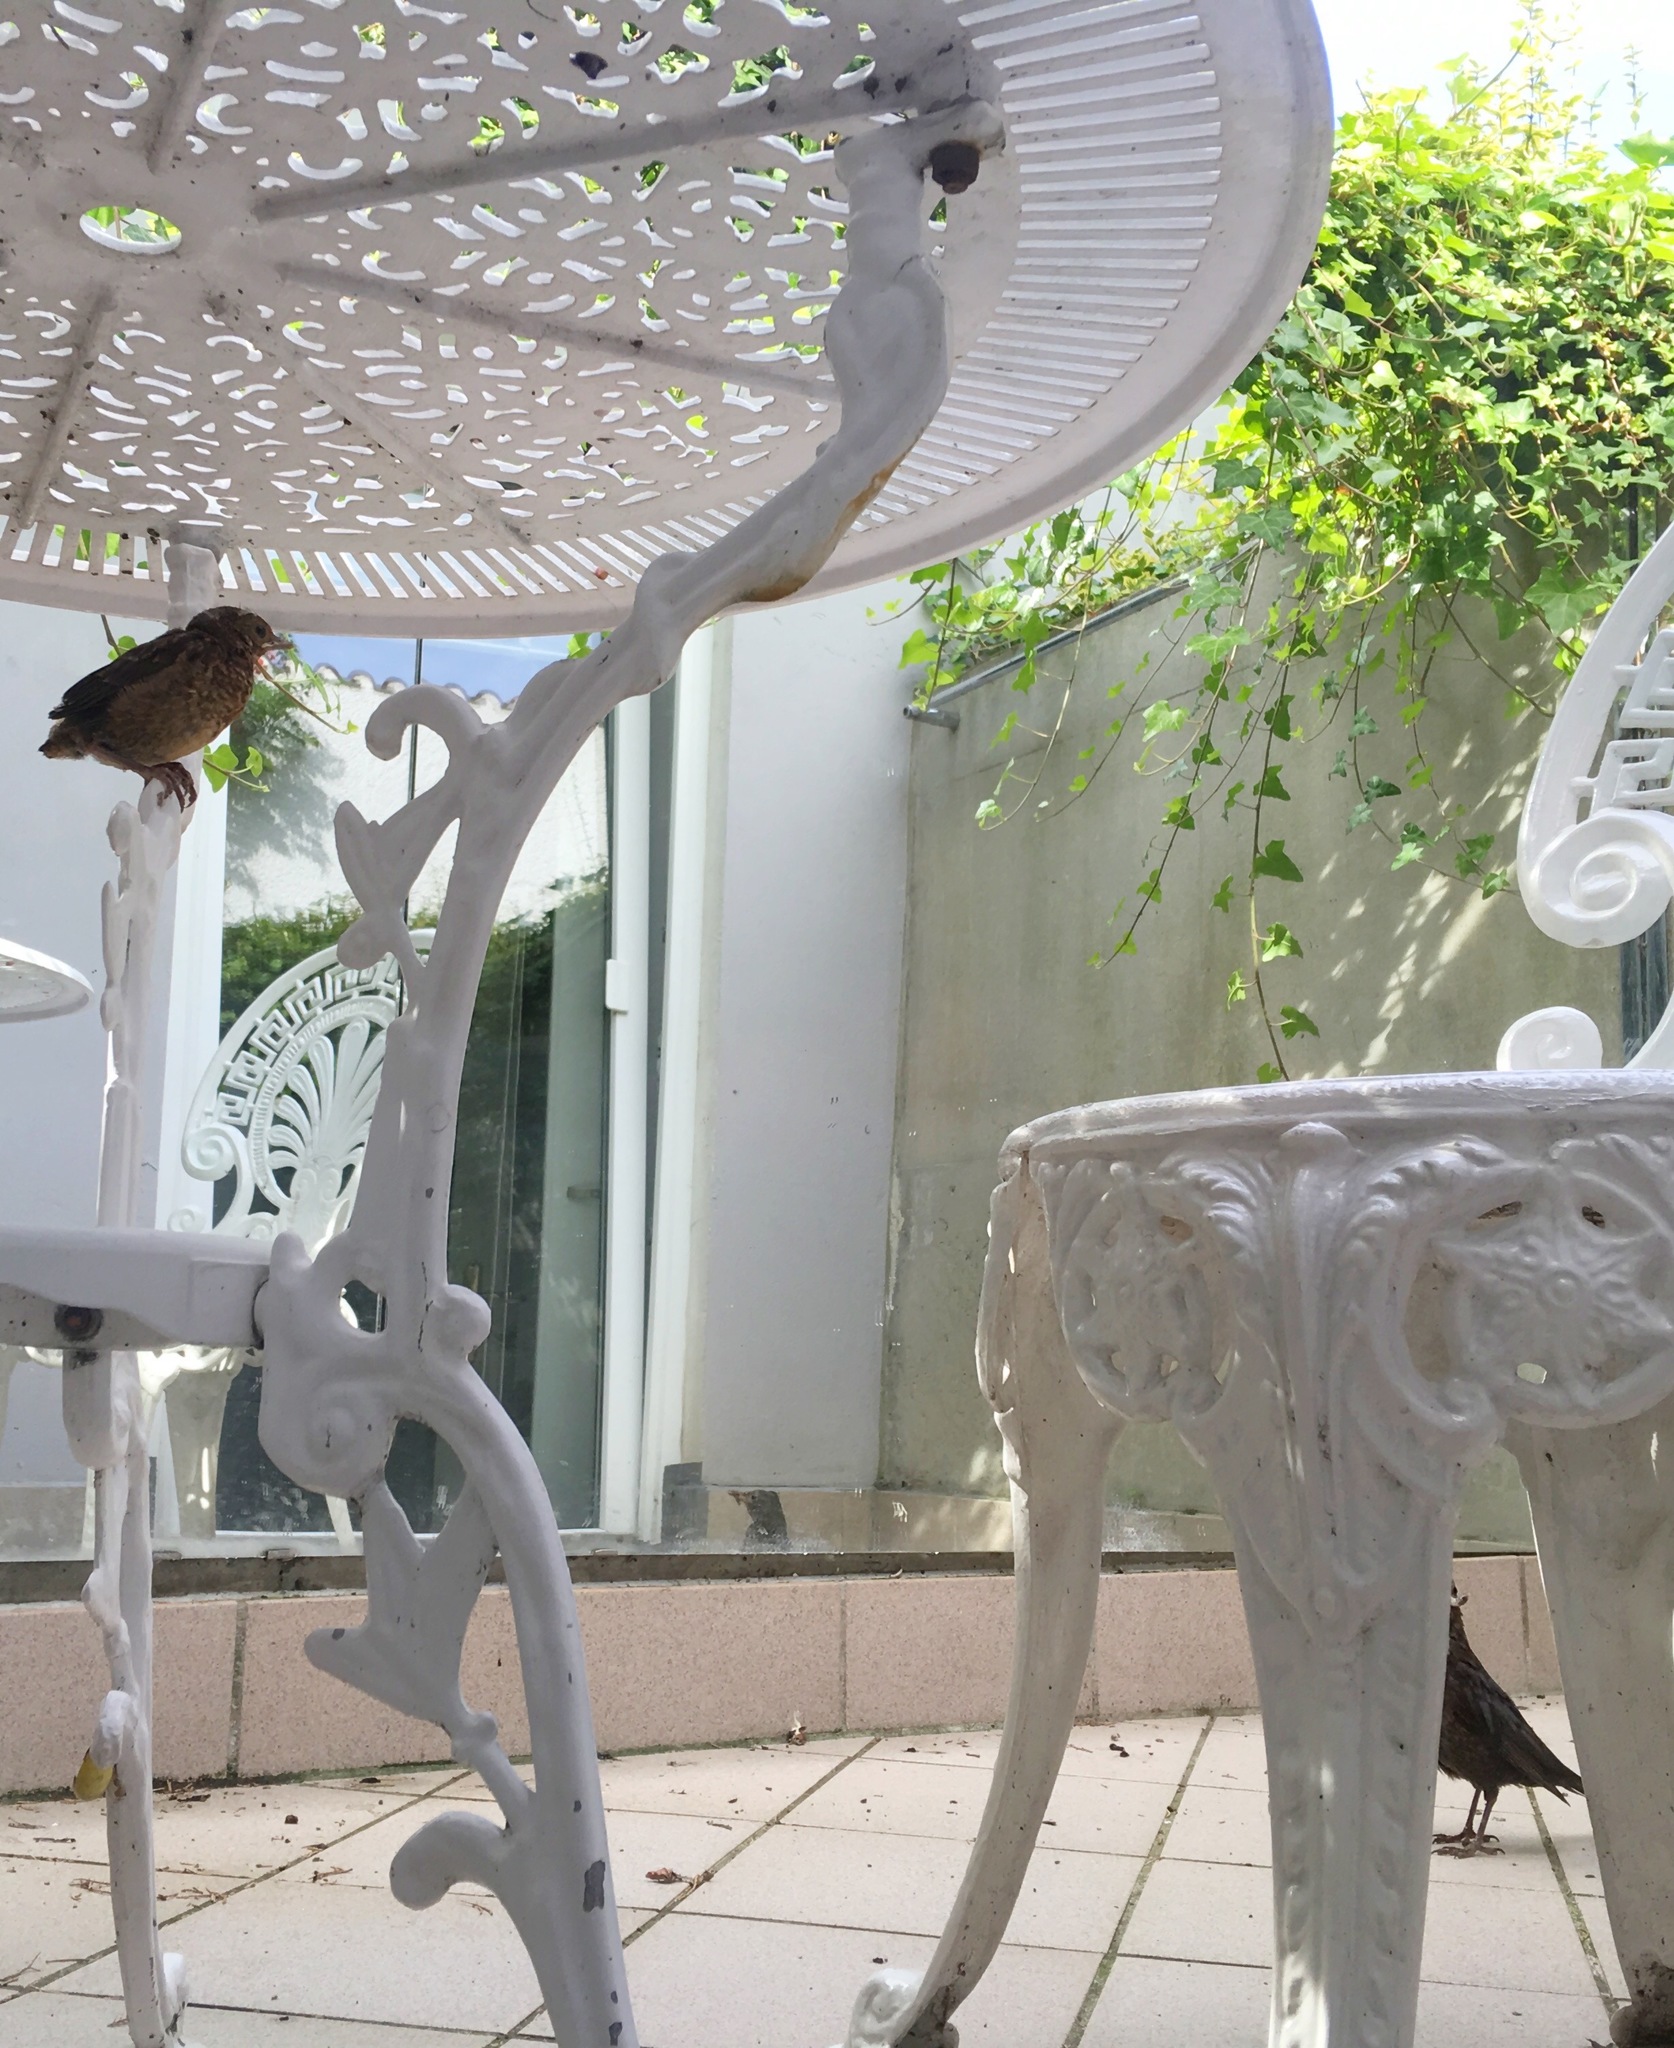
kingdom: Animalia
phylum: Chordata
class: Aves
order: Passeriformes
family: Turdidae
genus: Turdus
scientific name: Turdus merula
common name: Common blackbird
